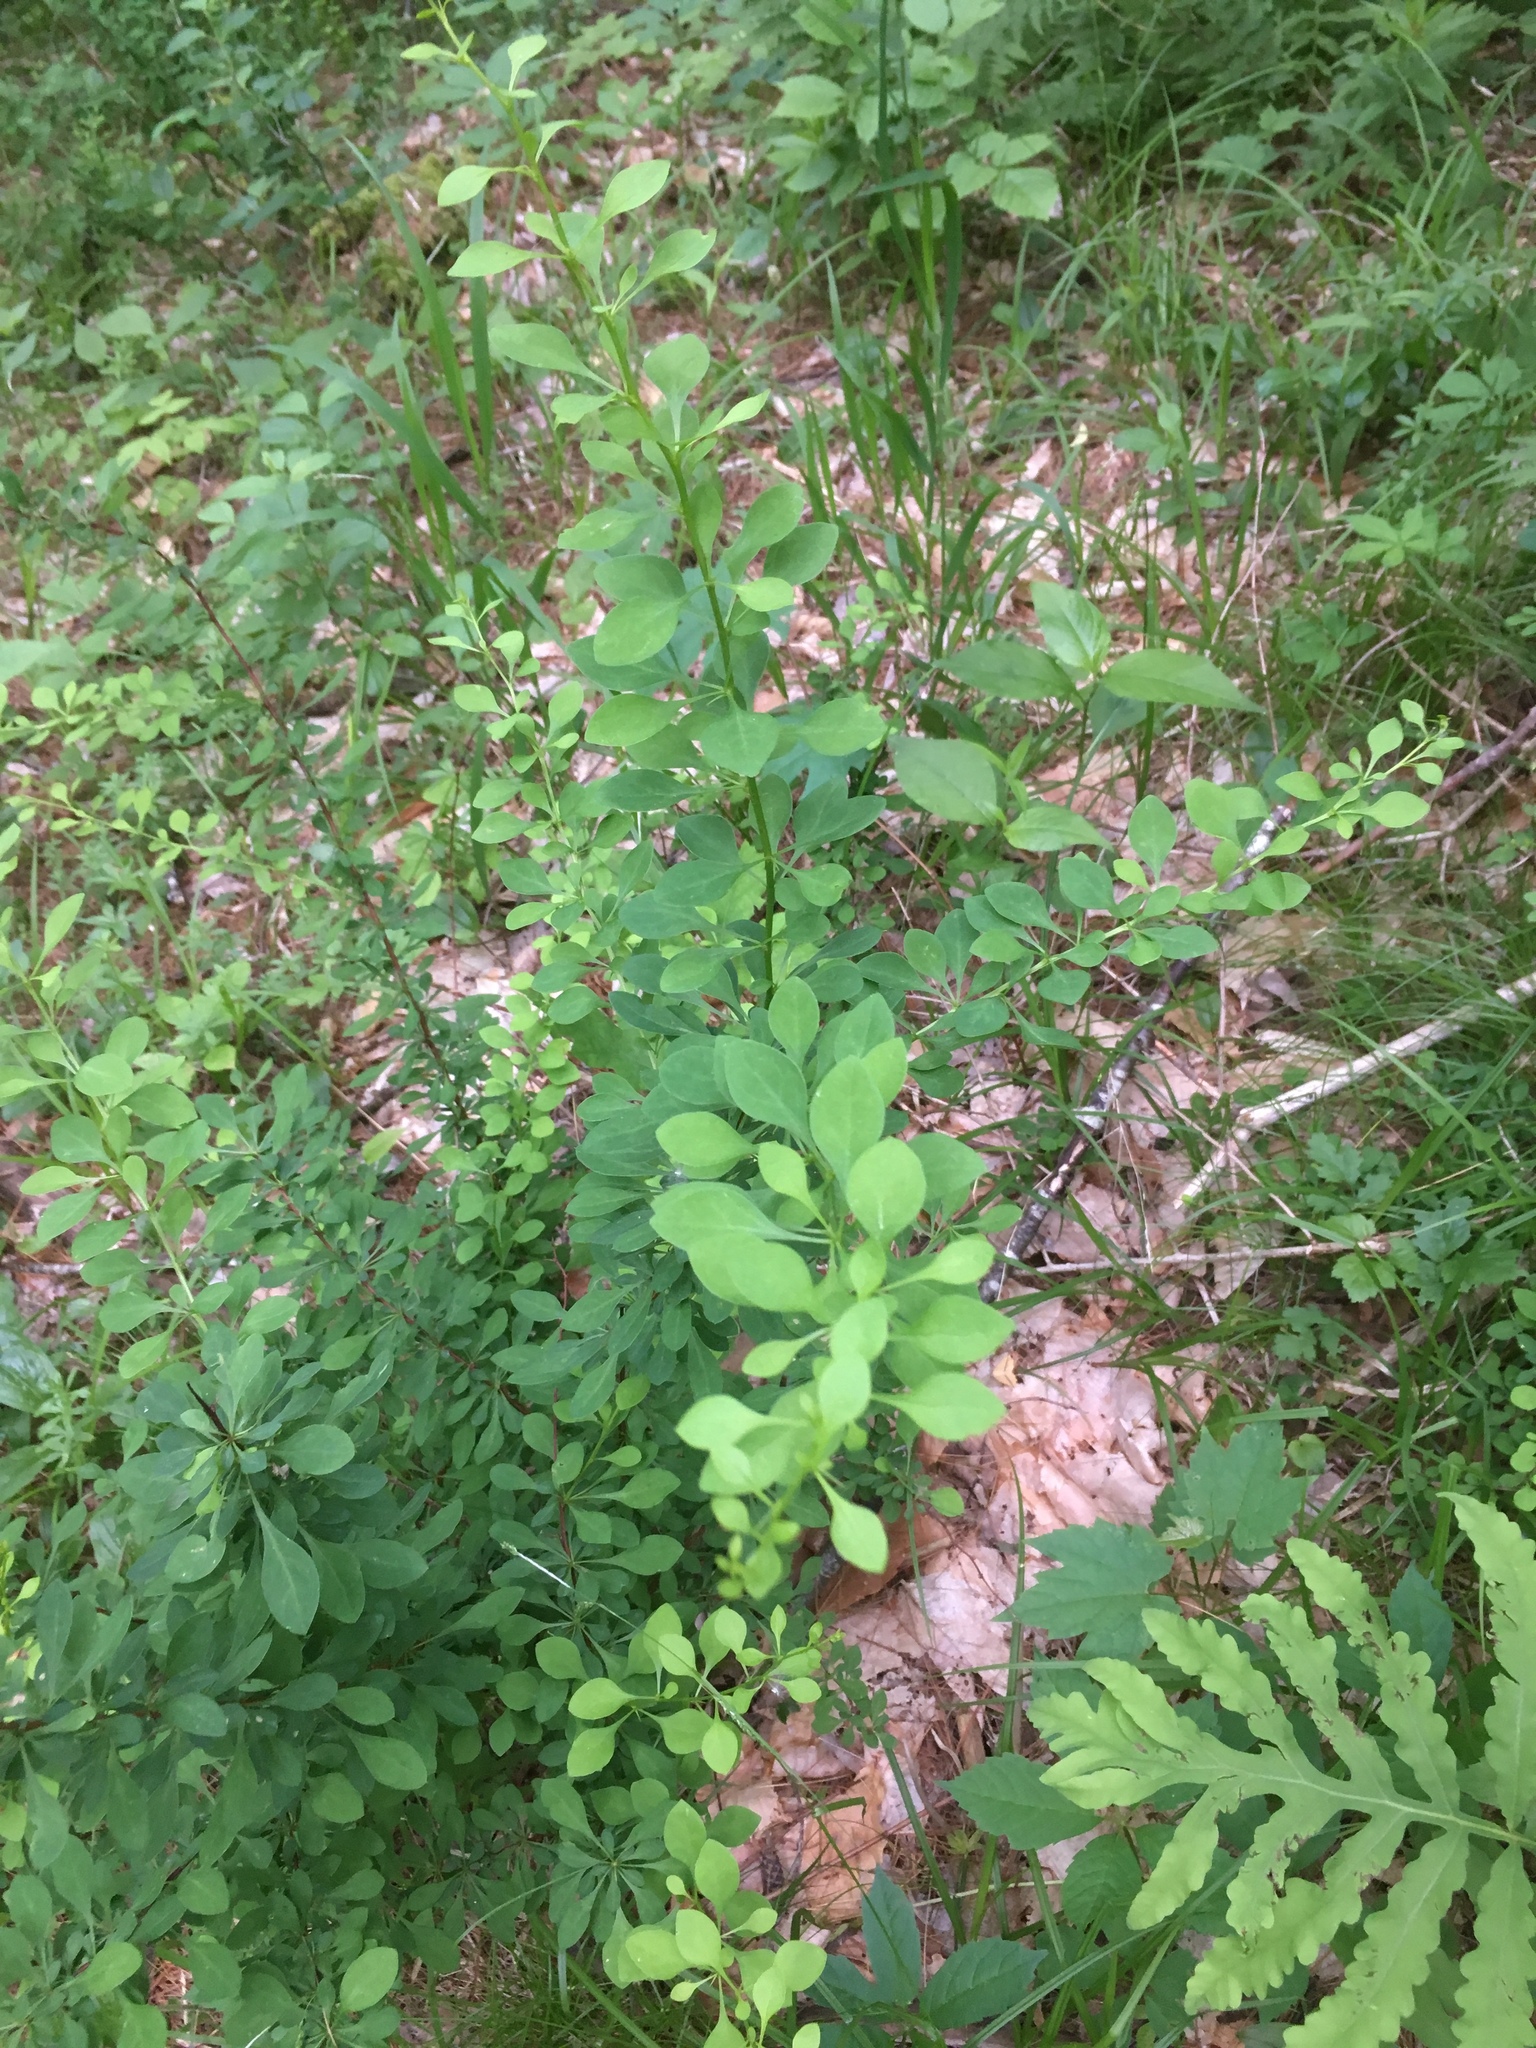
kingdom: Plantae
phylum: Tracheophyta
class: Magnoliopsida
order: Ranunculales
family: Berberidaceae
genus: Berberis
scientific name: Berberis thunbergii
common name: Japanese barberry
